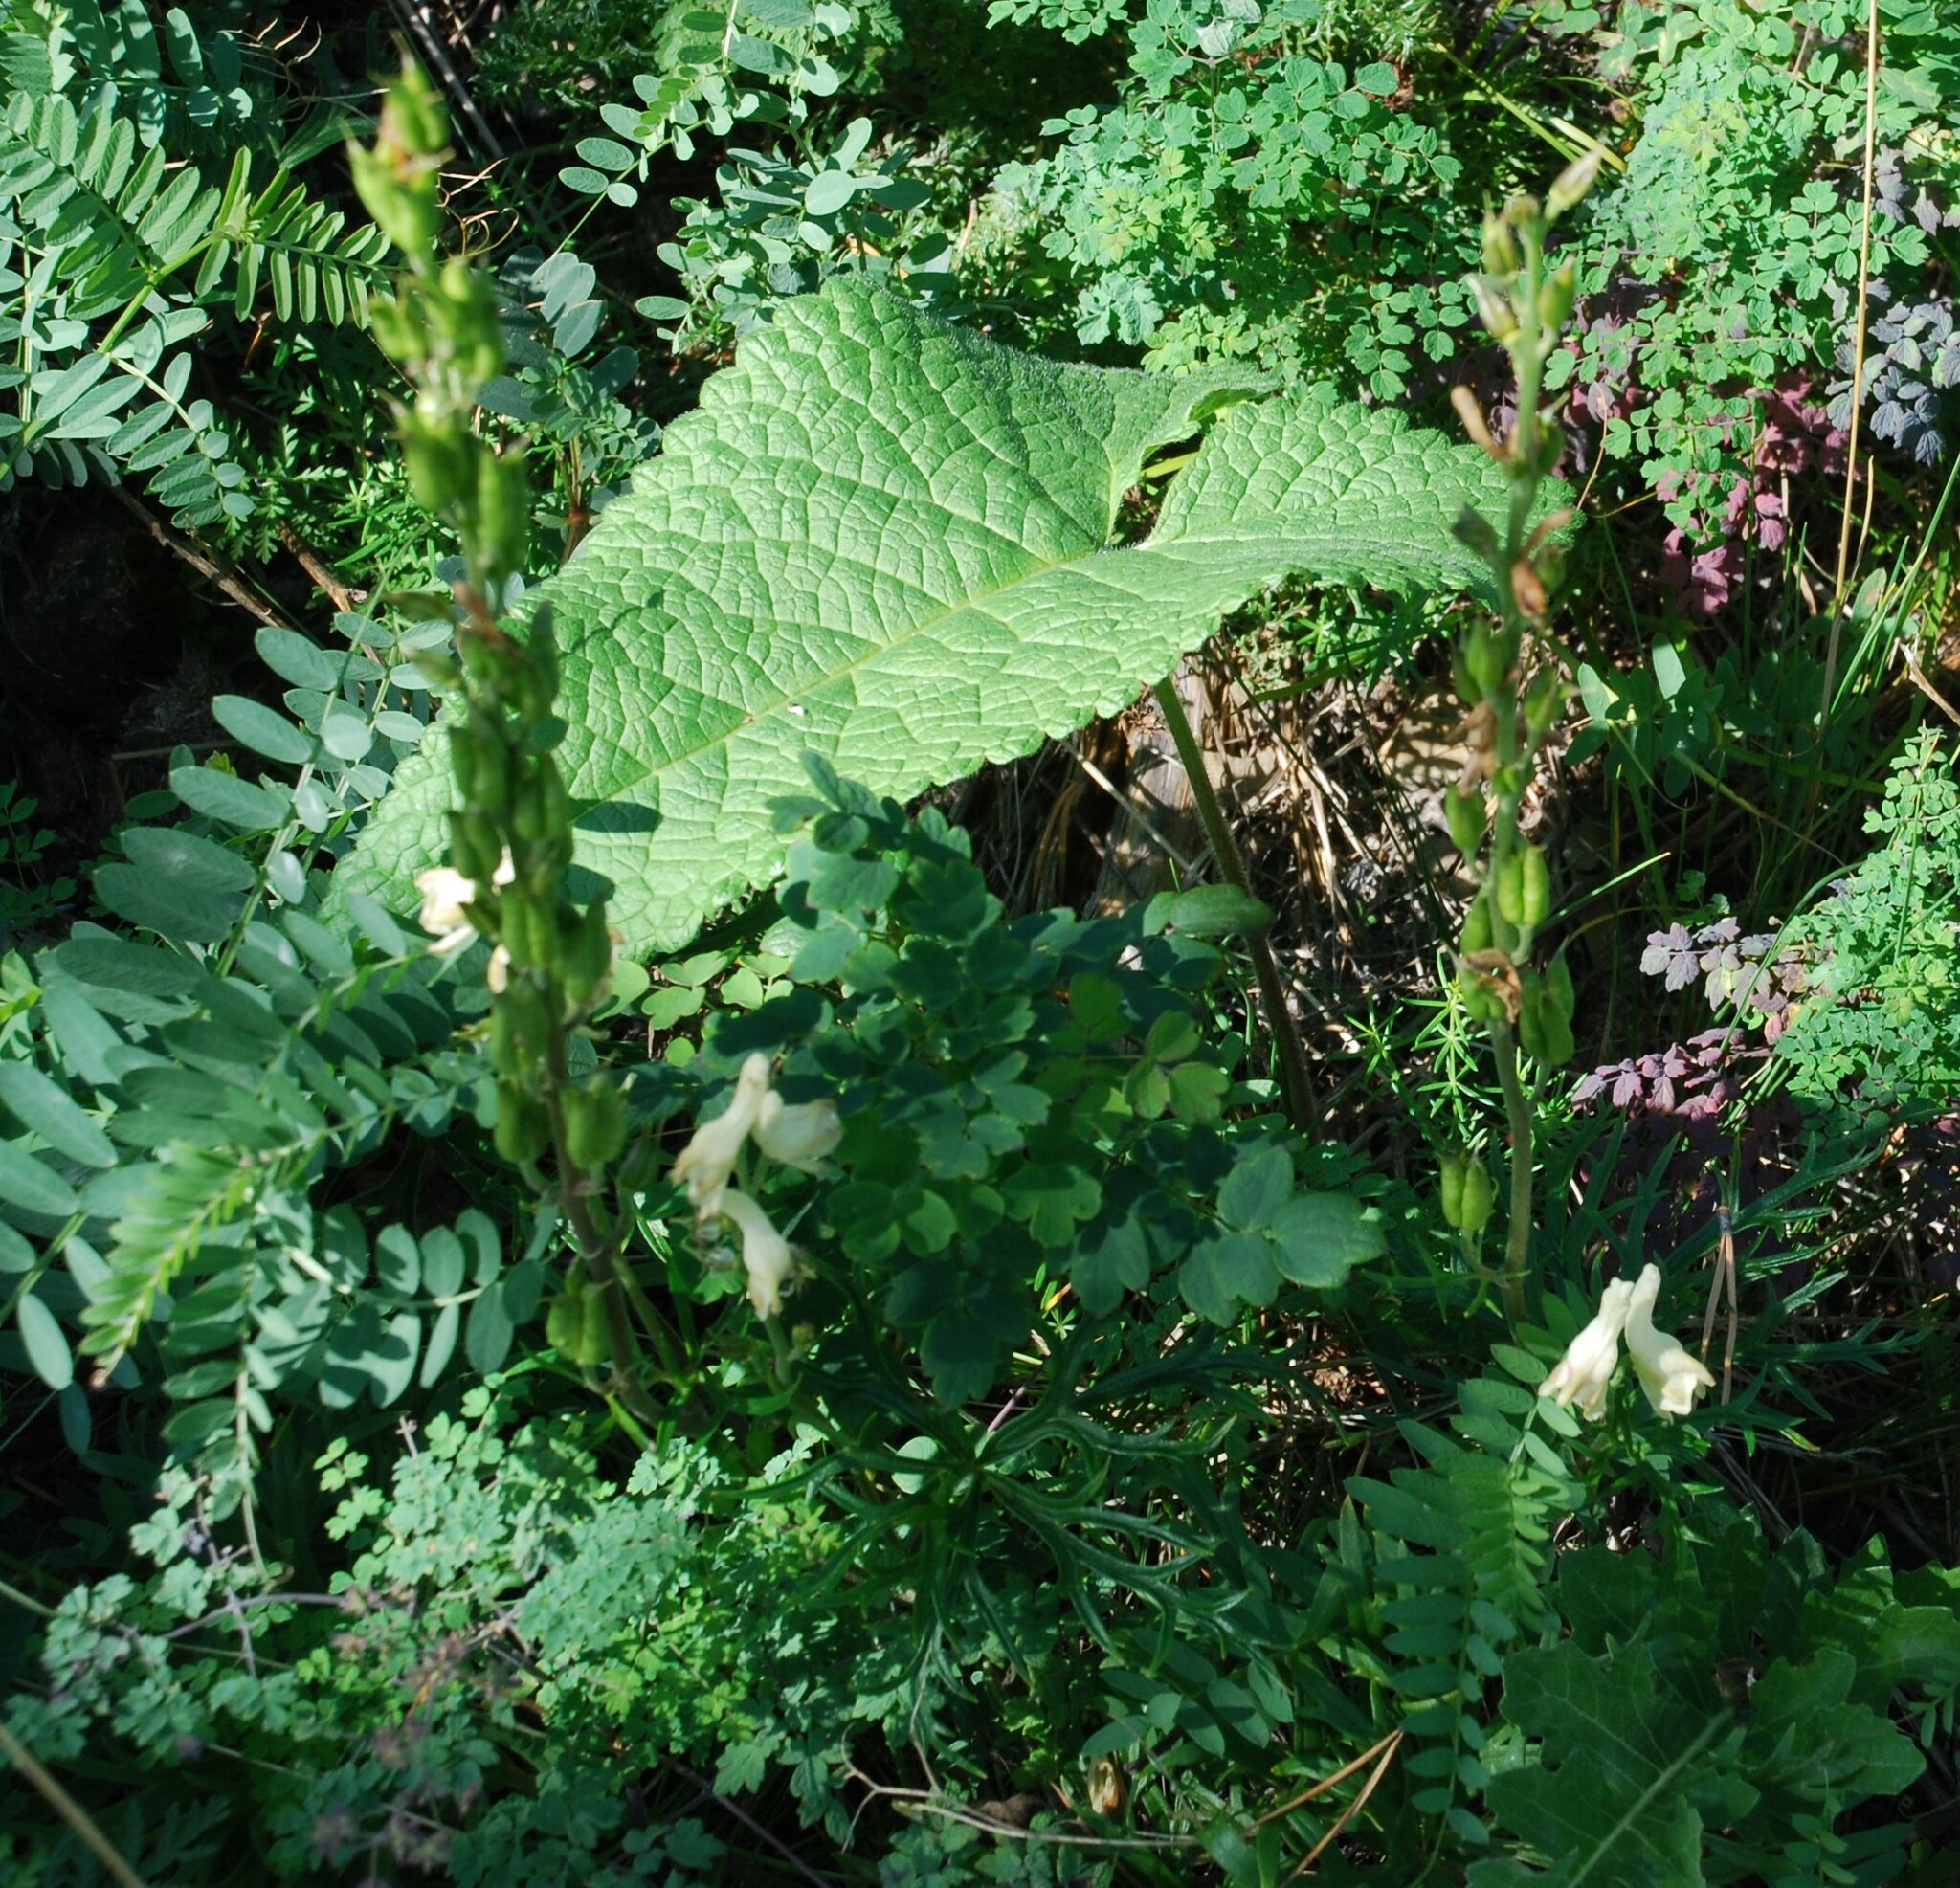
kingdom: Plantae
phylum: Tracheophyta
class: Magnoliopsida
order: Ranunculales
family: Ranunculaceae
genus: Aconitum
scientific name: Aconitum barbatum
